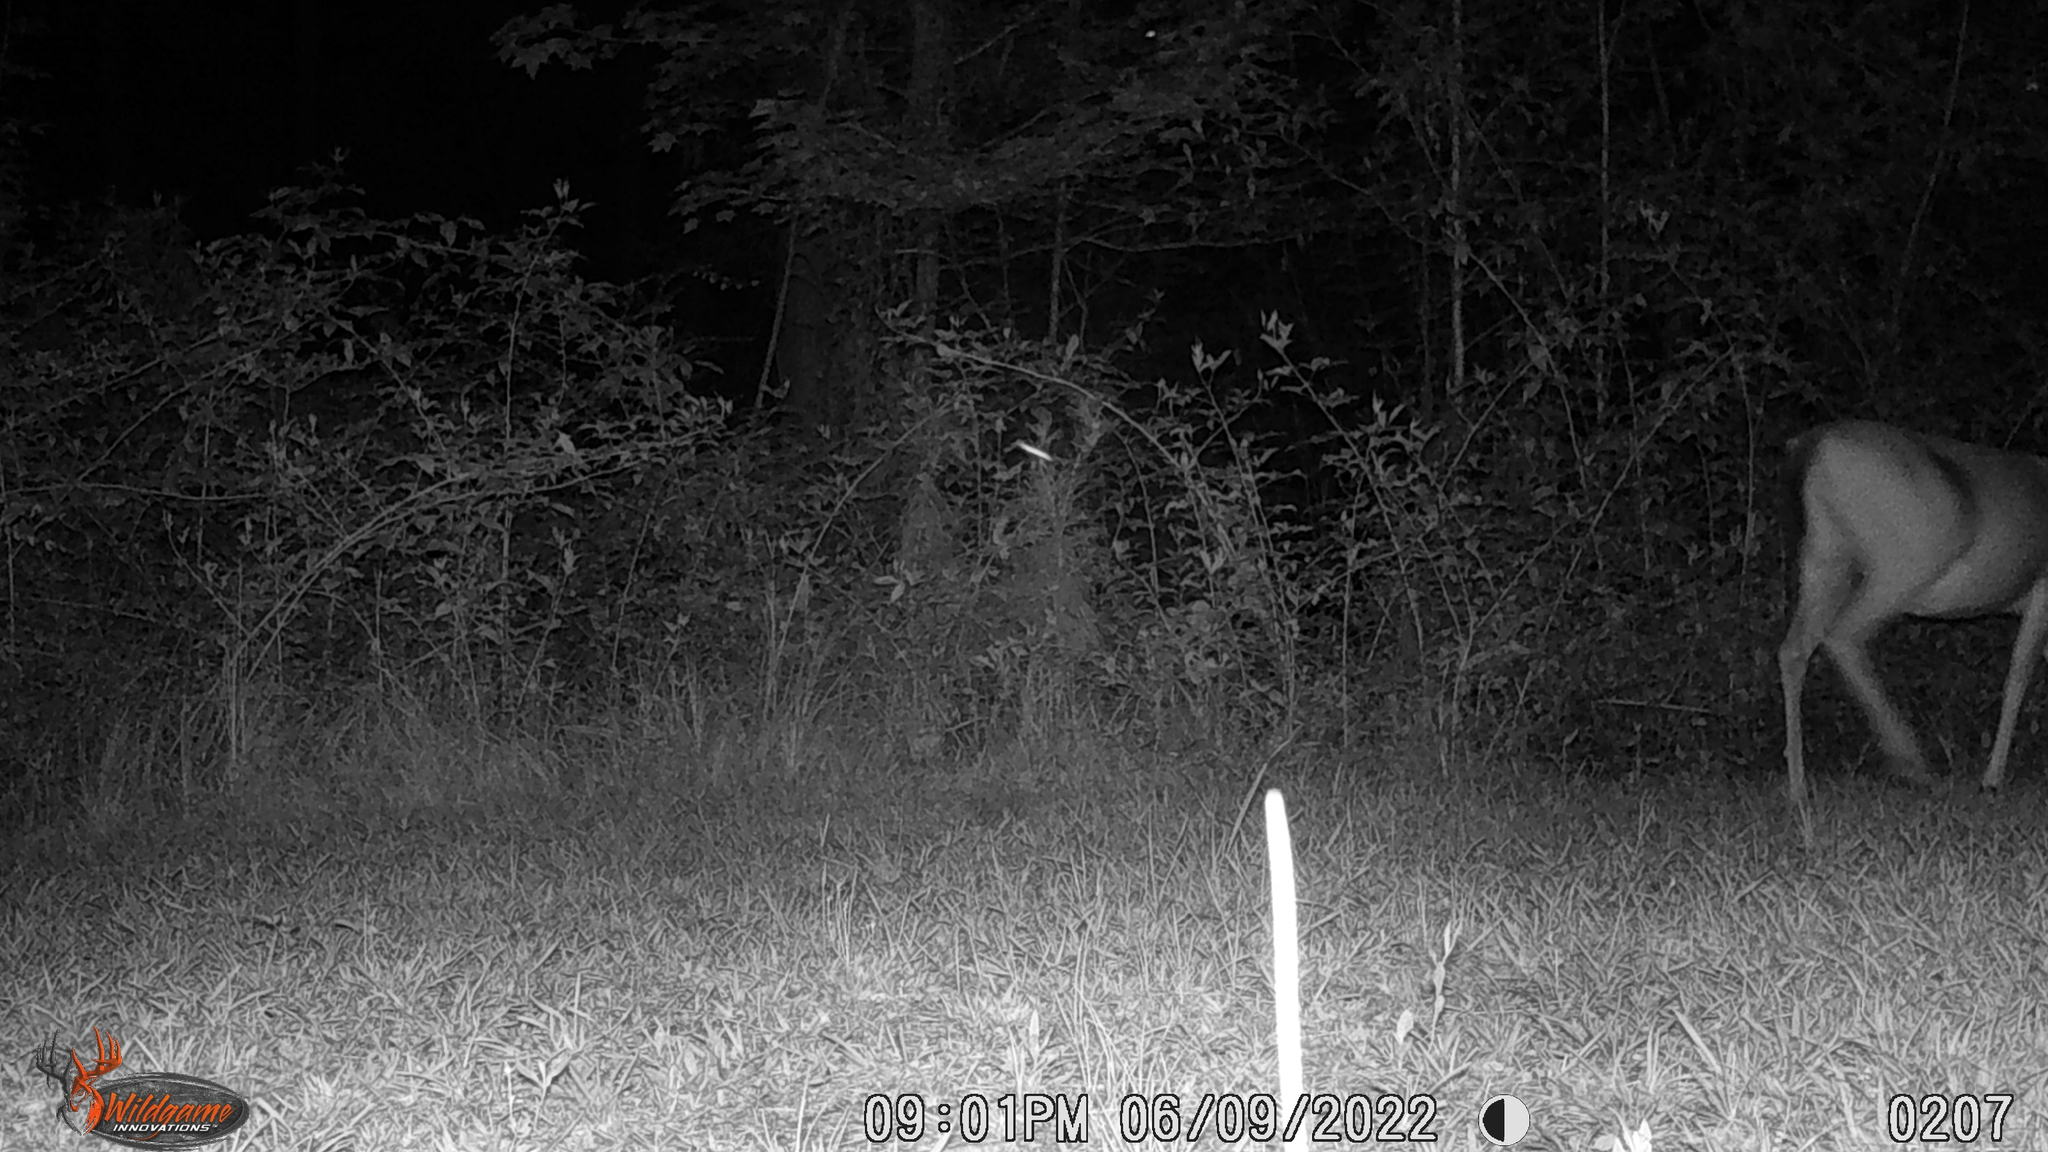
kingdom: Animalia
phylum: Chordata
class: Mammalia
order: Artiodactyla
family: Cervidae
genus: Odocoileus
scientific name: Odocoileus virginianus
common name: White-tailed deer
